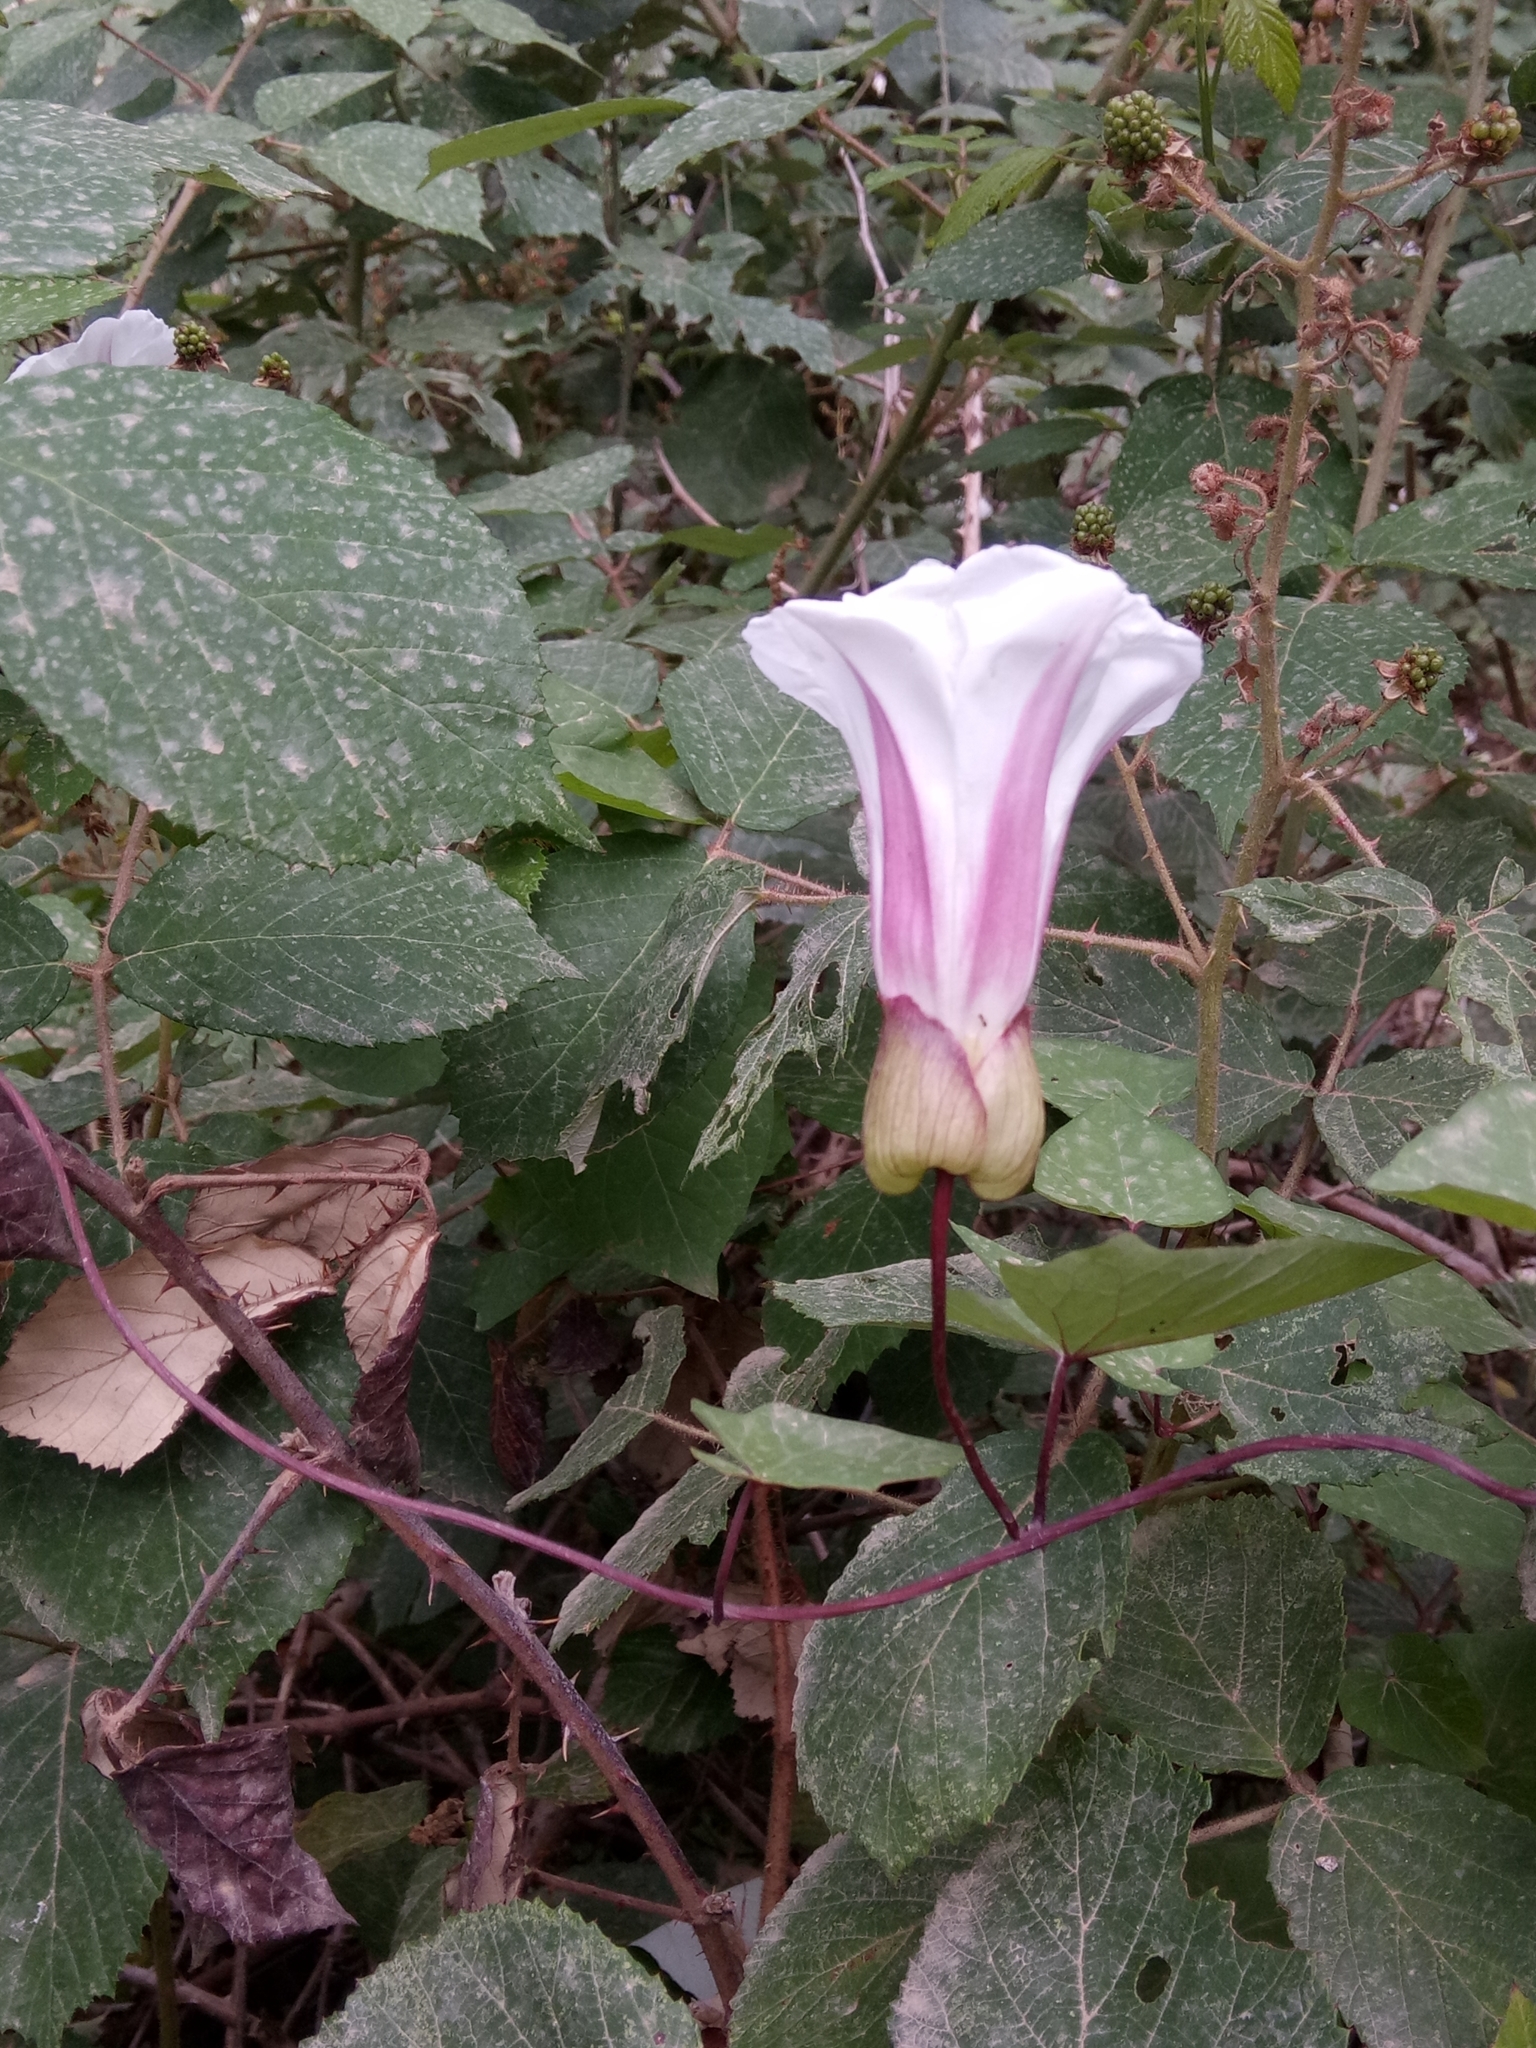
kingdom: Plantae
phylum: Tracheophyta
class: Magnoliopsida
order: Solanales
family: Convolvulaceae
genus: Calystegia
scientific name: Calystegia silvatica
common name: Large bindweed
